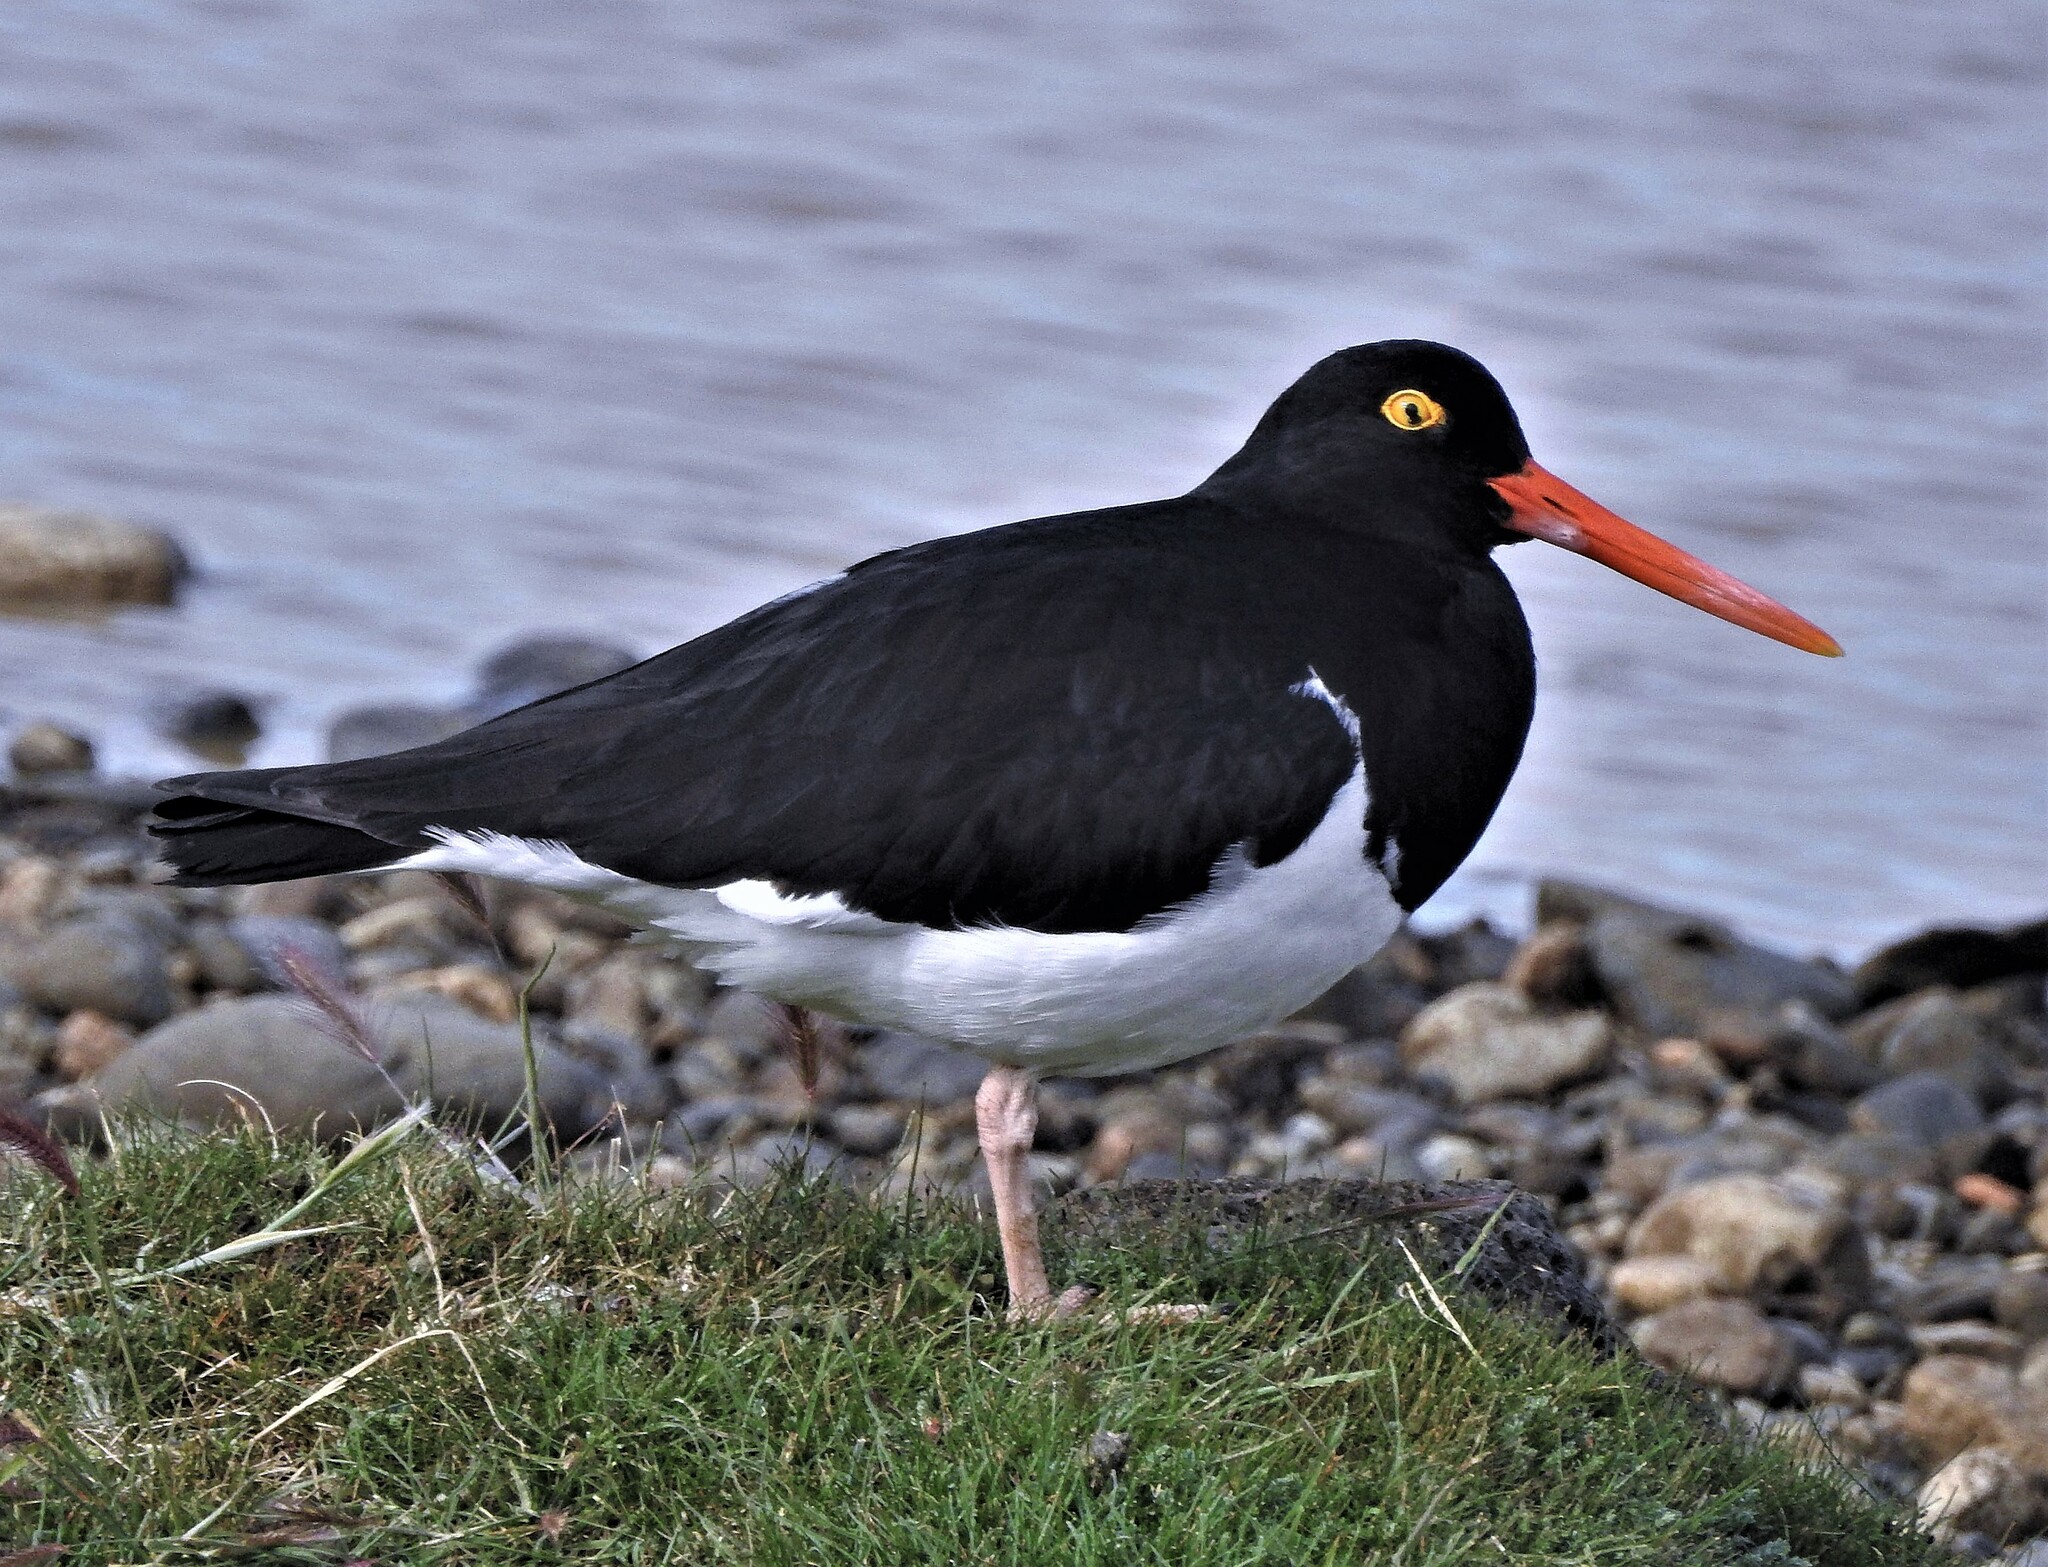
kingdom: Animalia
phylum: Chordata
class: Aves
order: Charadriiformes
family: Haematopodidae
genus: Haematopus
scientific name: Haematopus leucopodus
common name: Magellanic oystercatcher
